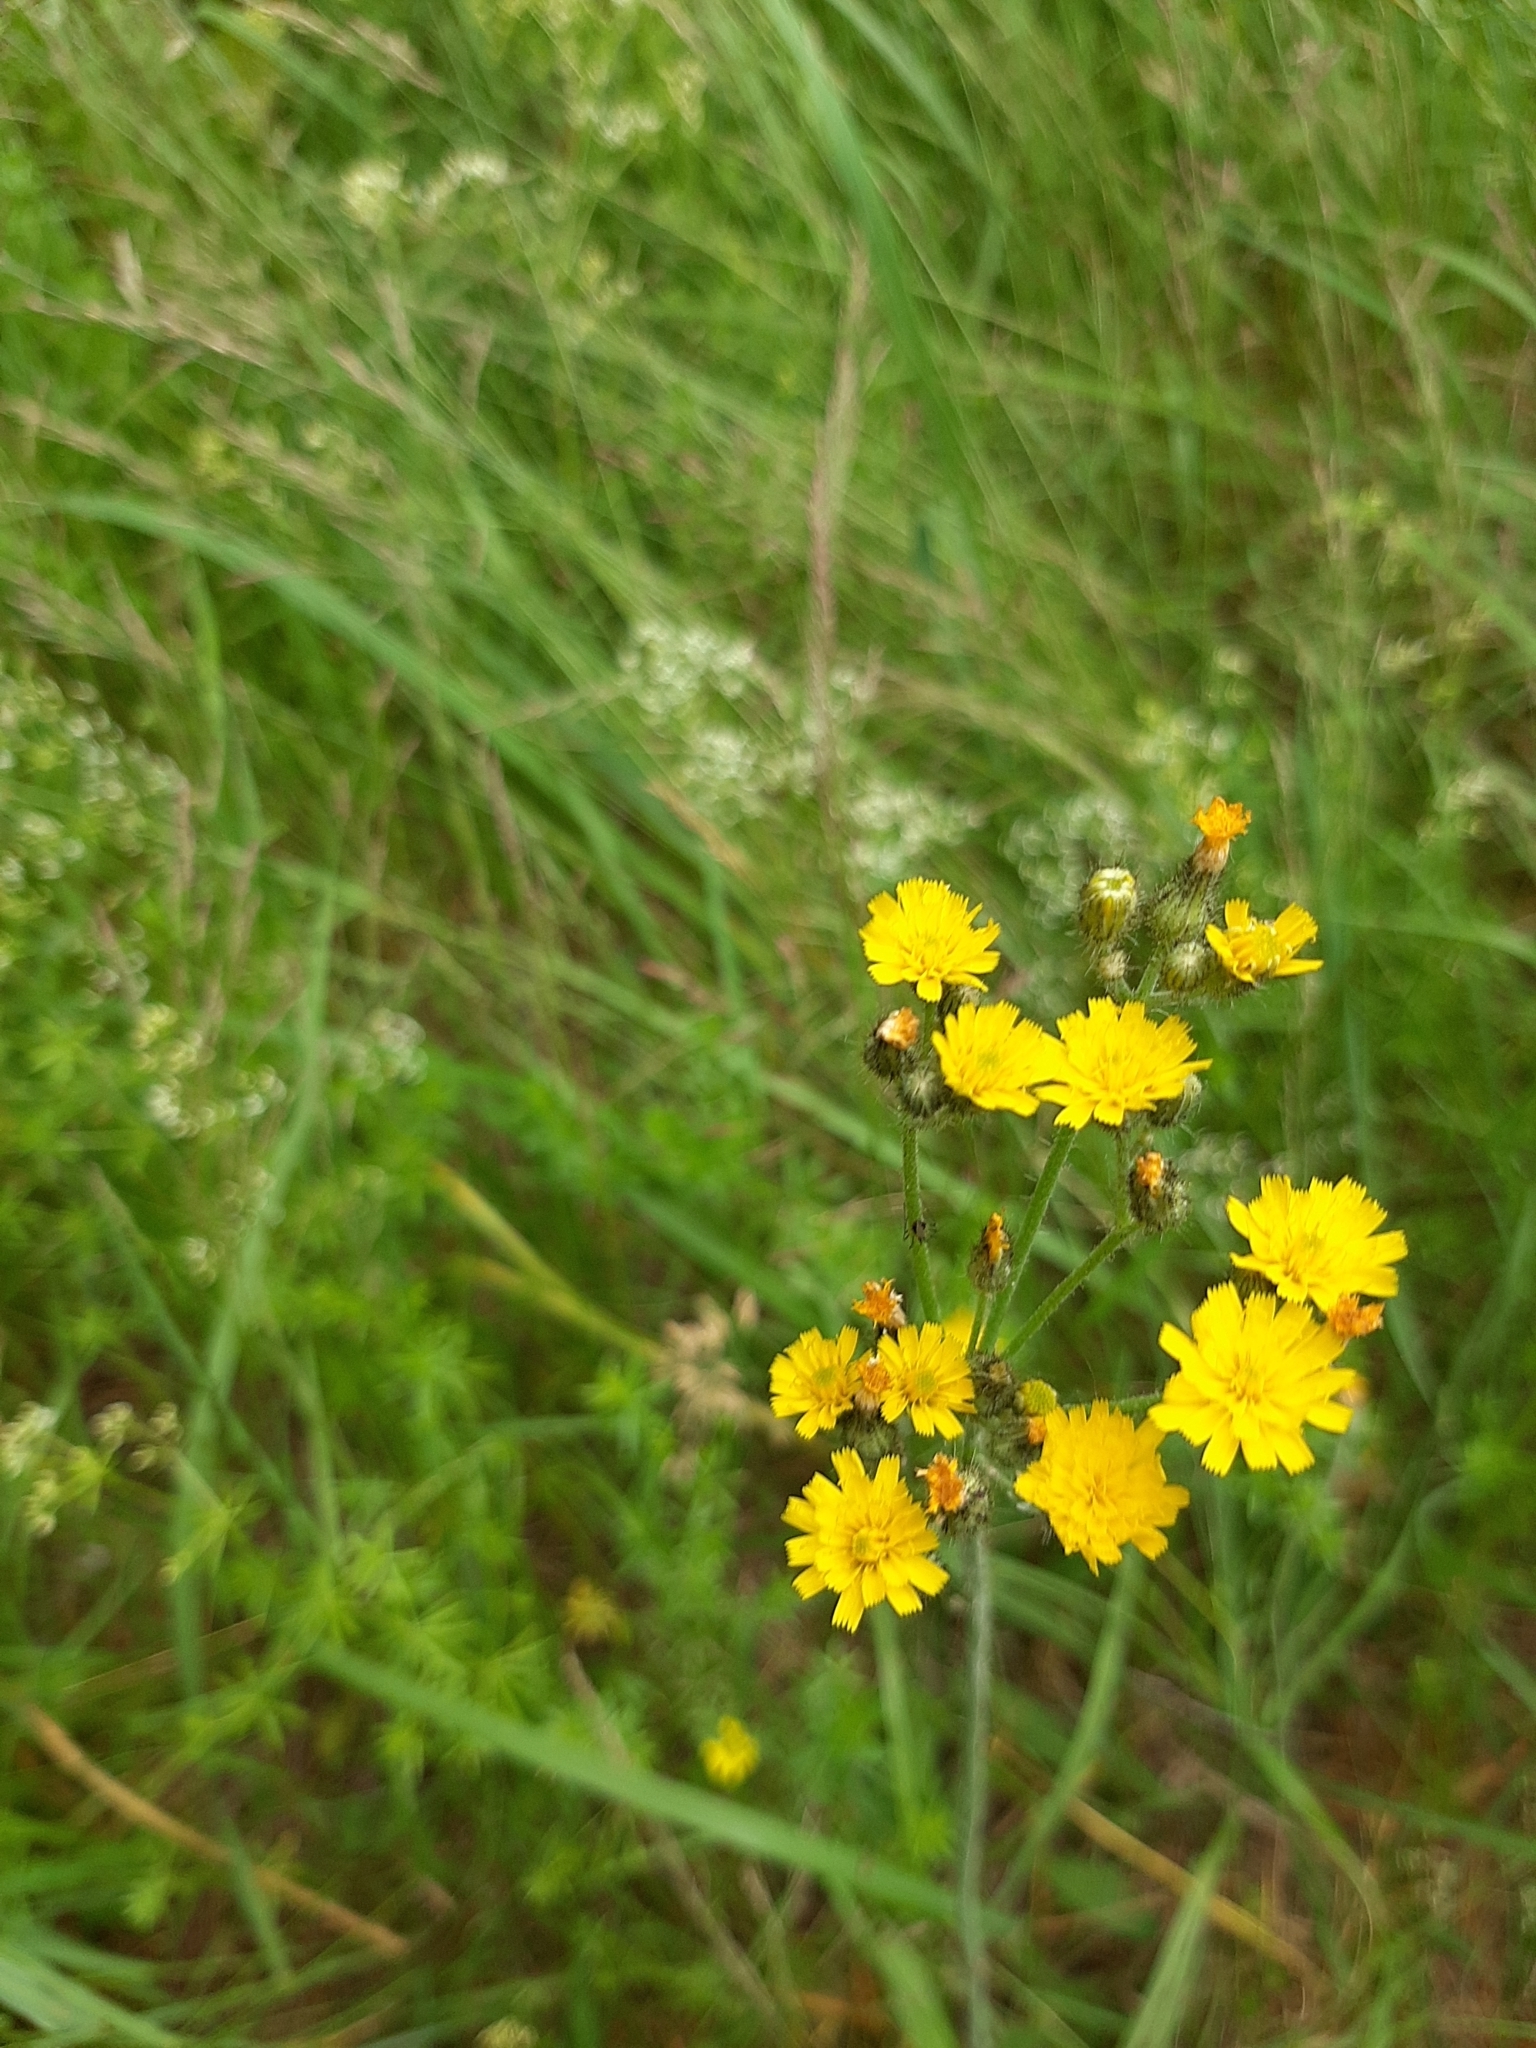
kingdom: Plantae
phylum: Tracheophyta
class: Magnoliopsida
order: Asterales
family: Asteraceae
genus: Pilosella
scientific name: Pilosella
